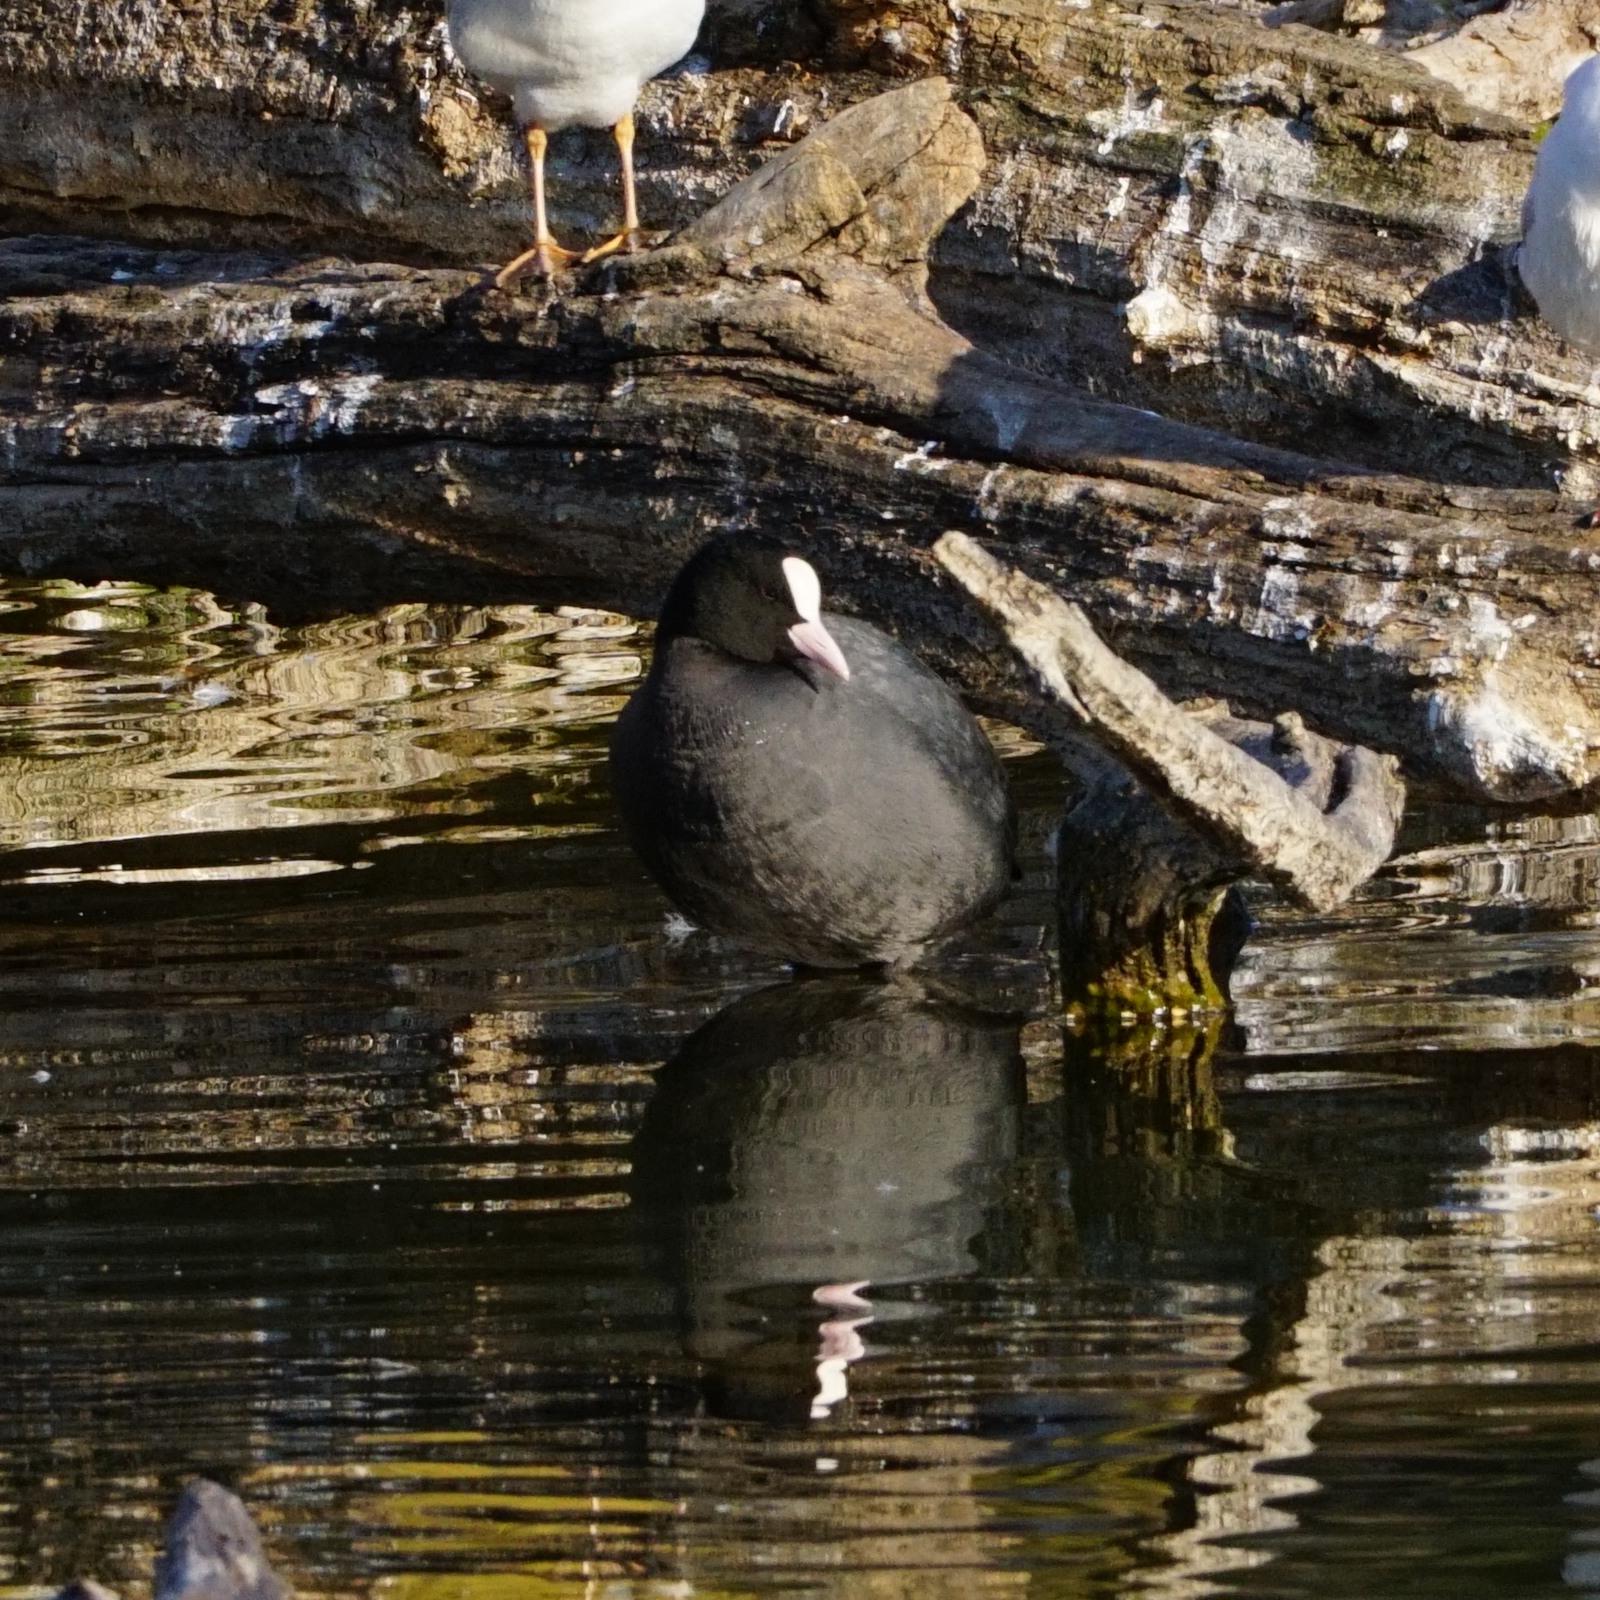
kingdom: Animalia
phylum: Chordata
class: Aves
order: Gruiformes
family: Rallidae
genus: Fulica
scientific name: Fulica atra
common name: Eurasian coot
